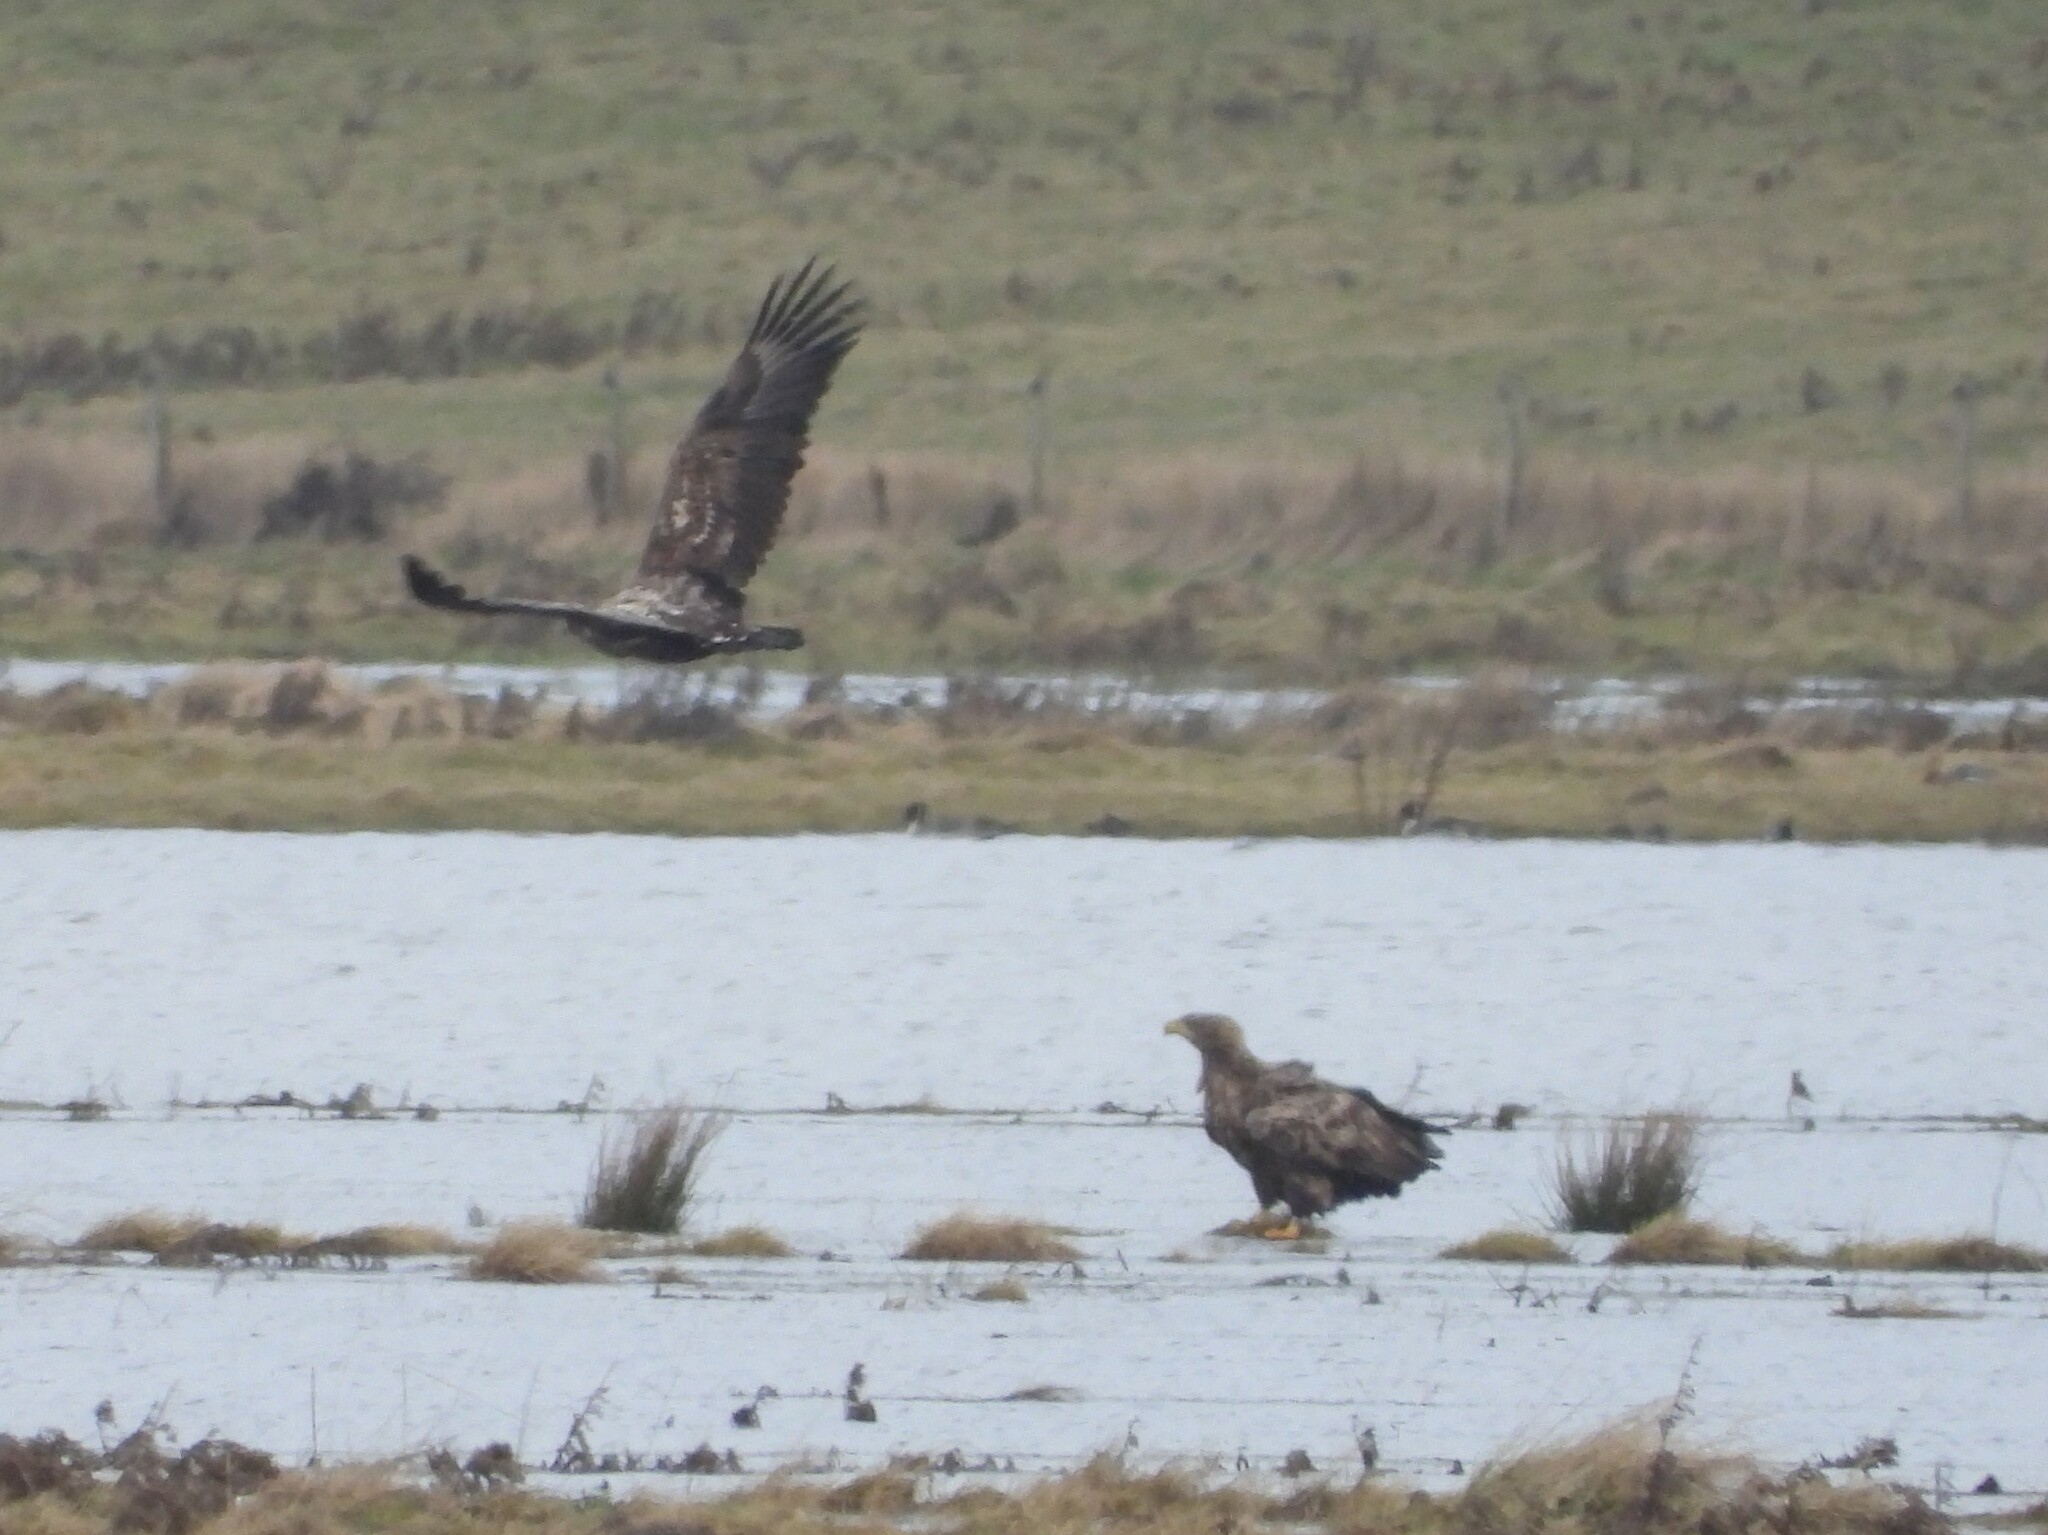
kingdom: Animalia
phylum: Chordata
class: Aves
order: Accipitriformes
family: Accipitridae
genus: Haliaeetus
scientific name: Haliaeetus albicilla
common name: White-tailed eagle
